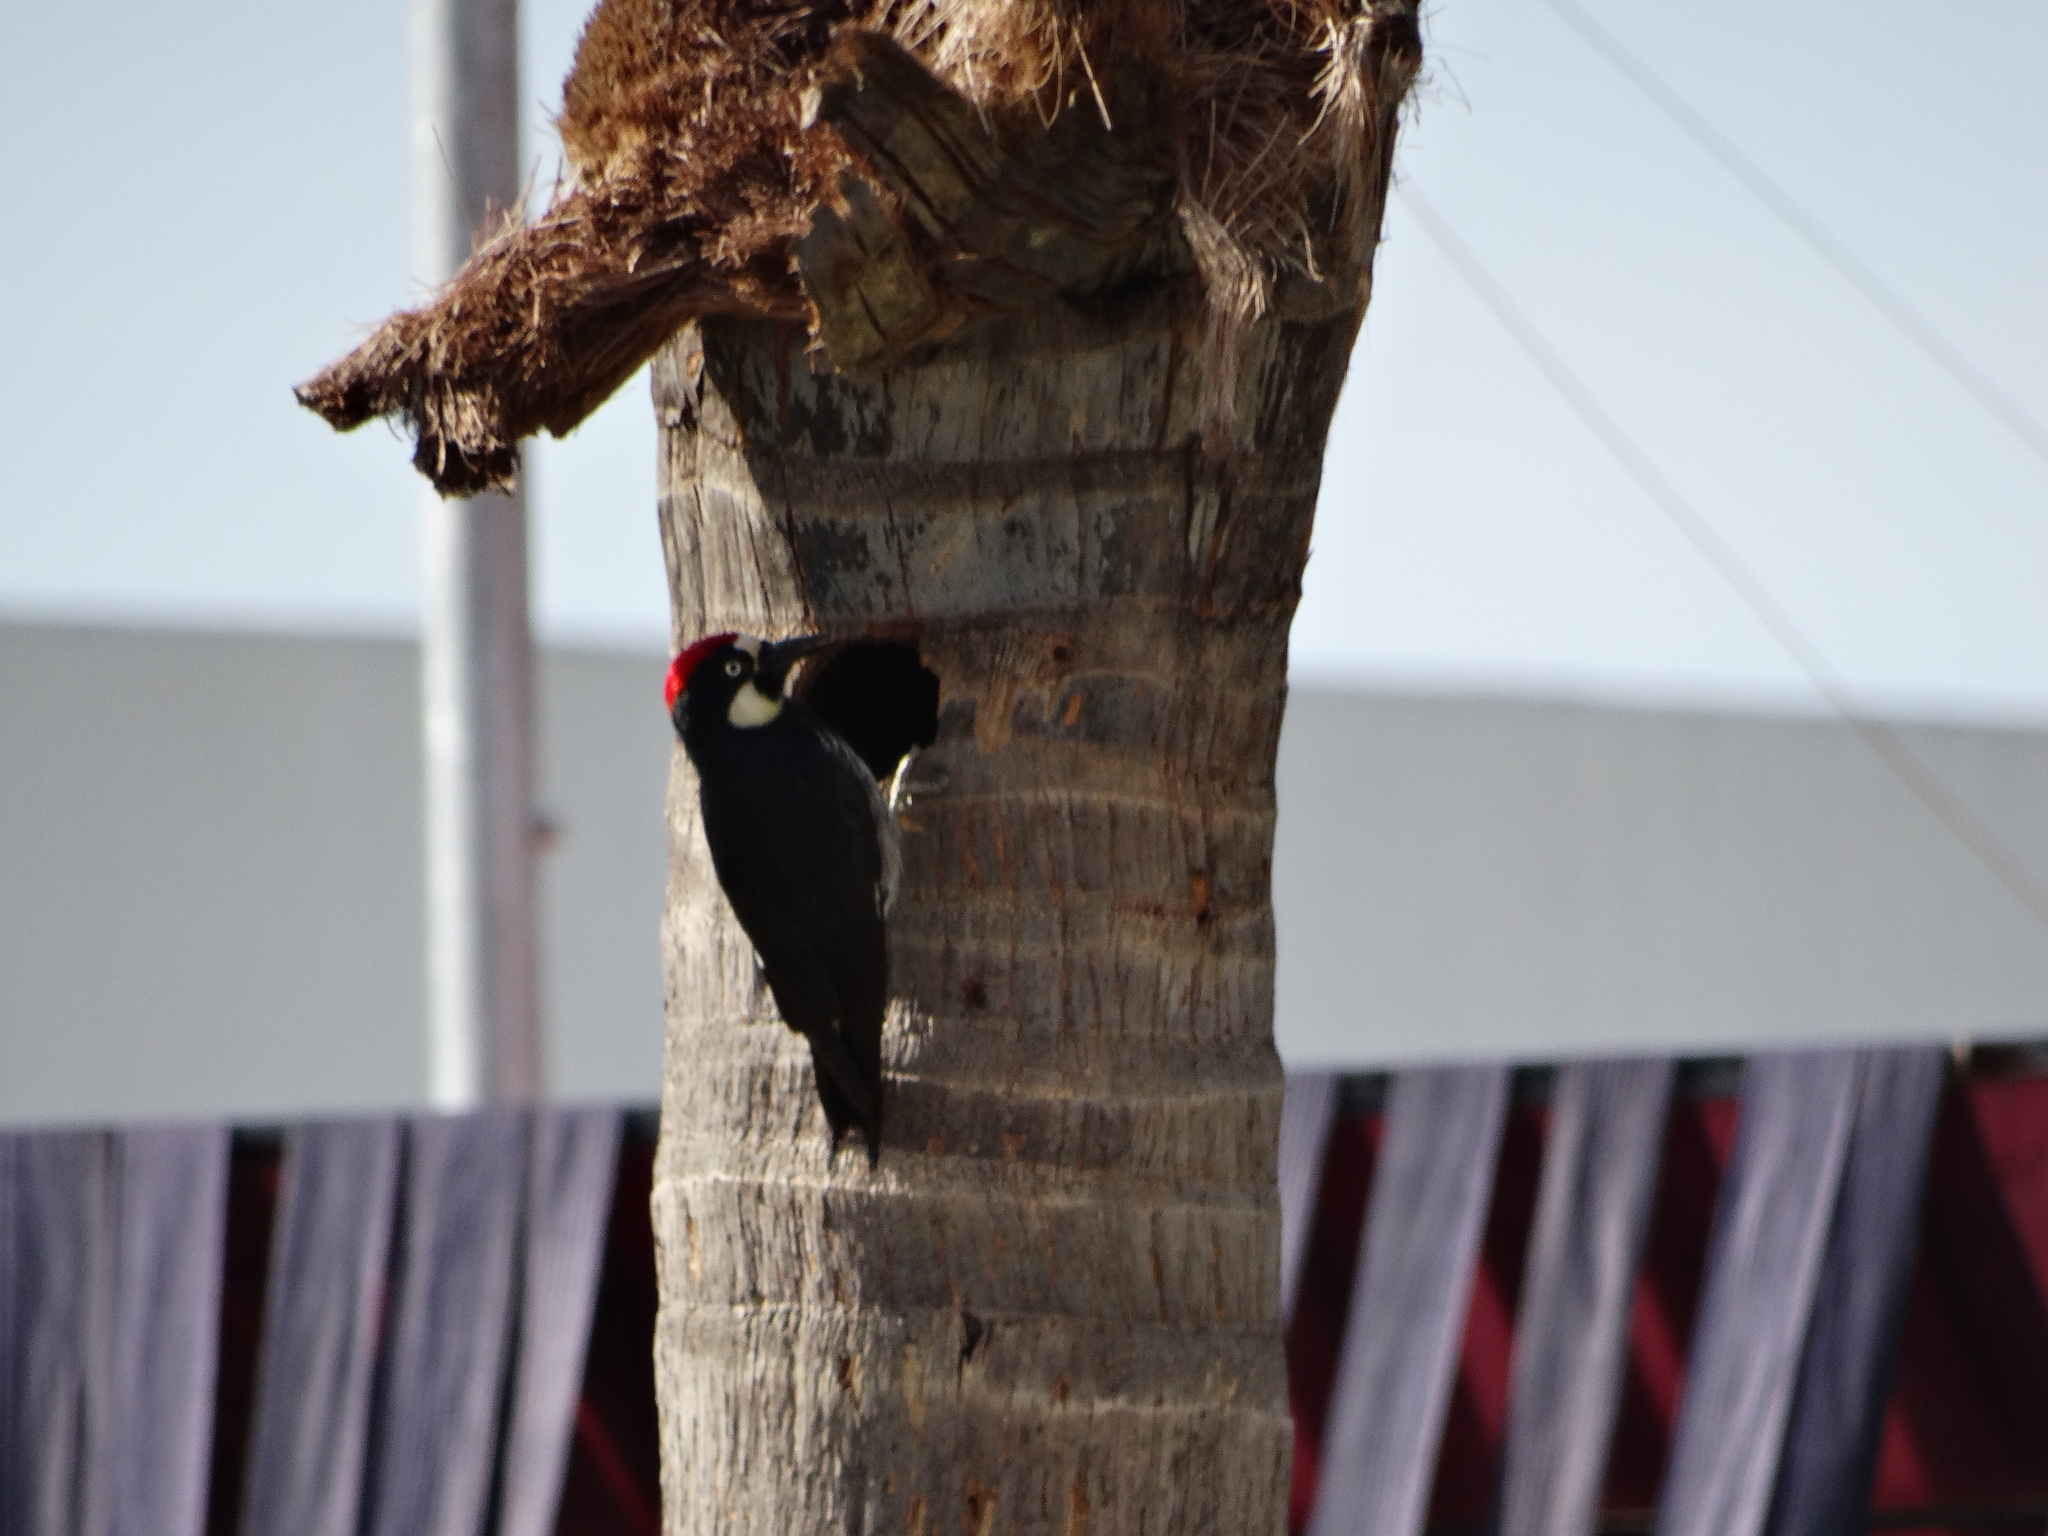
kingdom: Animalia
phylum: Chordata
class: Aves
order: Piciformes
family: Picidae
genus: Melanerpes
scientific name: Melanerpes formicivorus
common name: Acorn woodpecker
